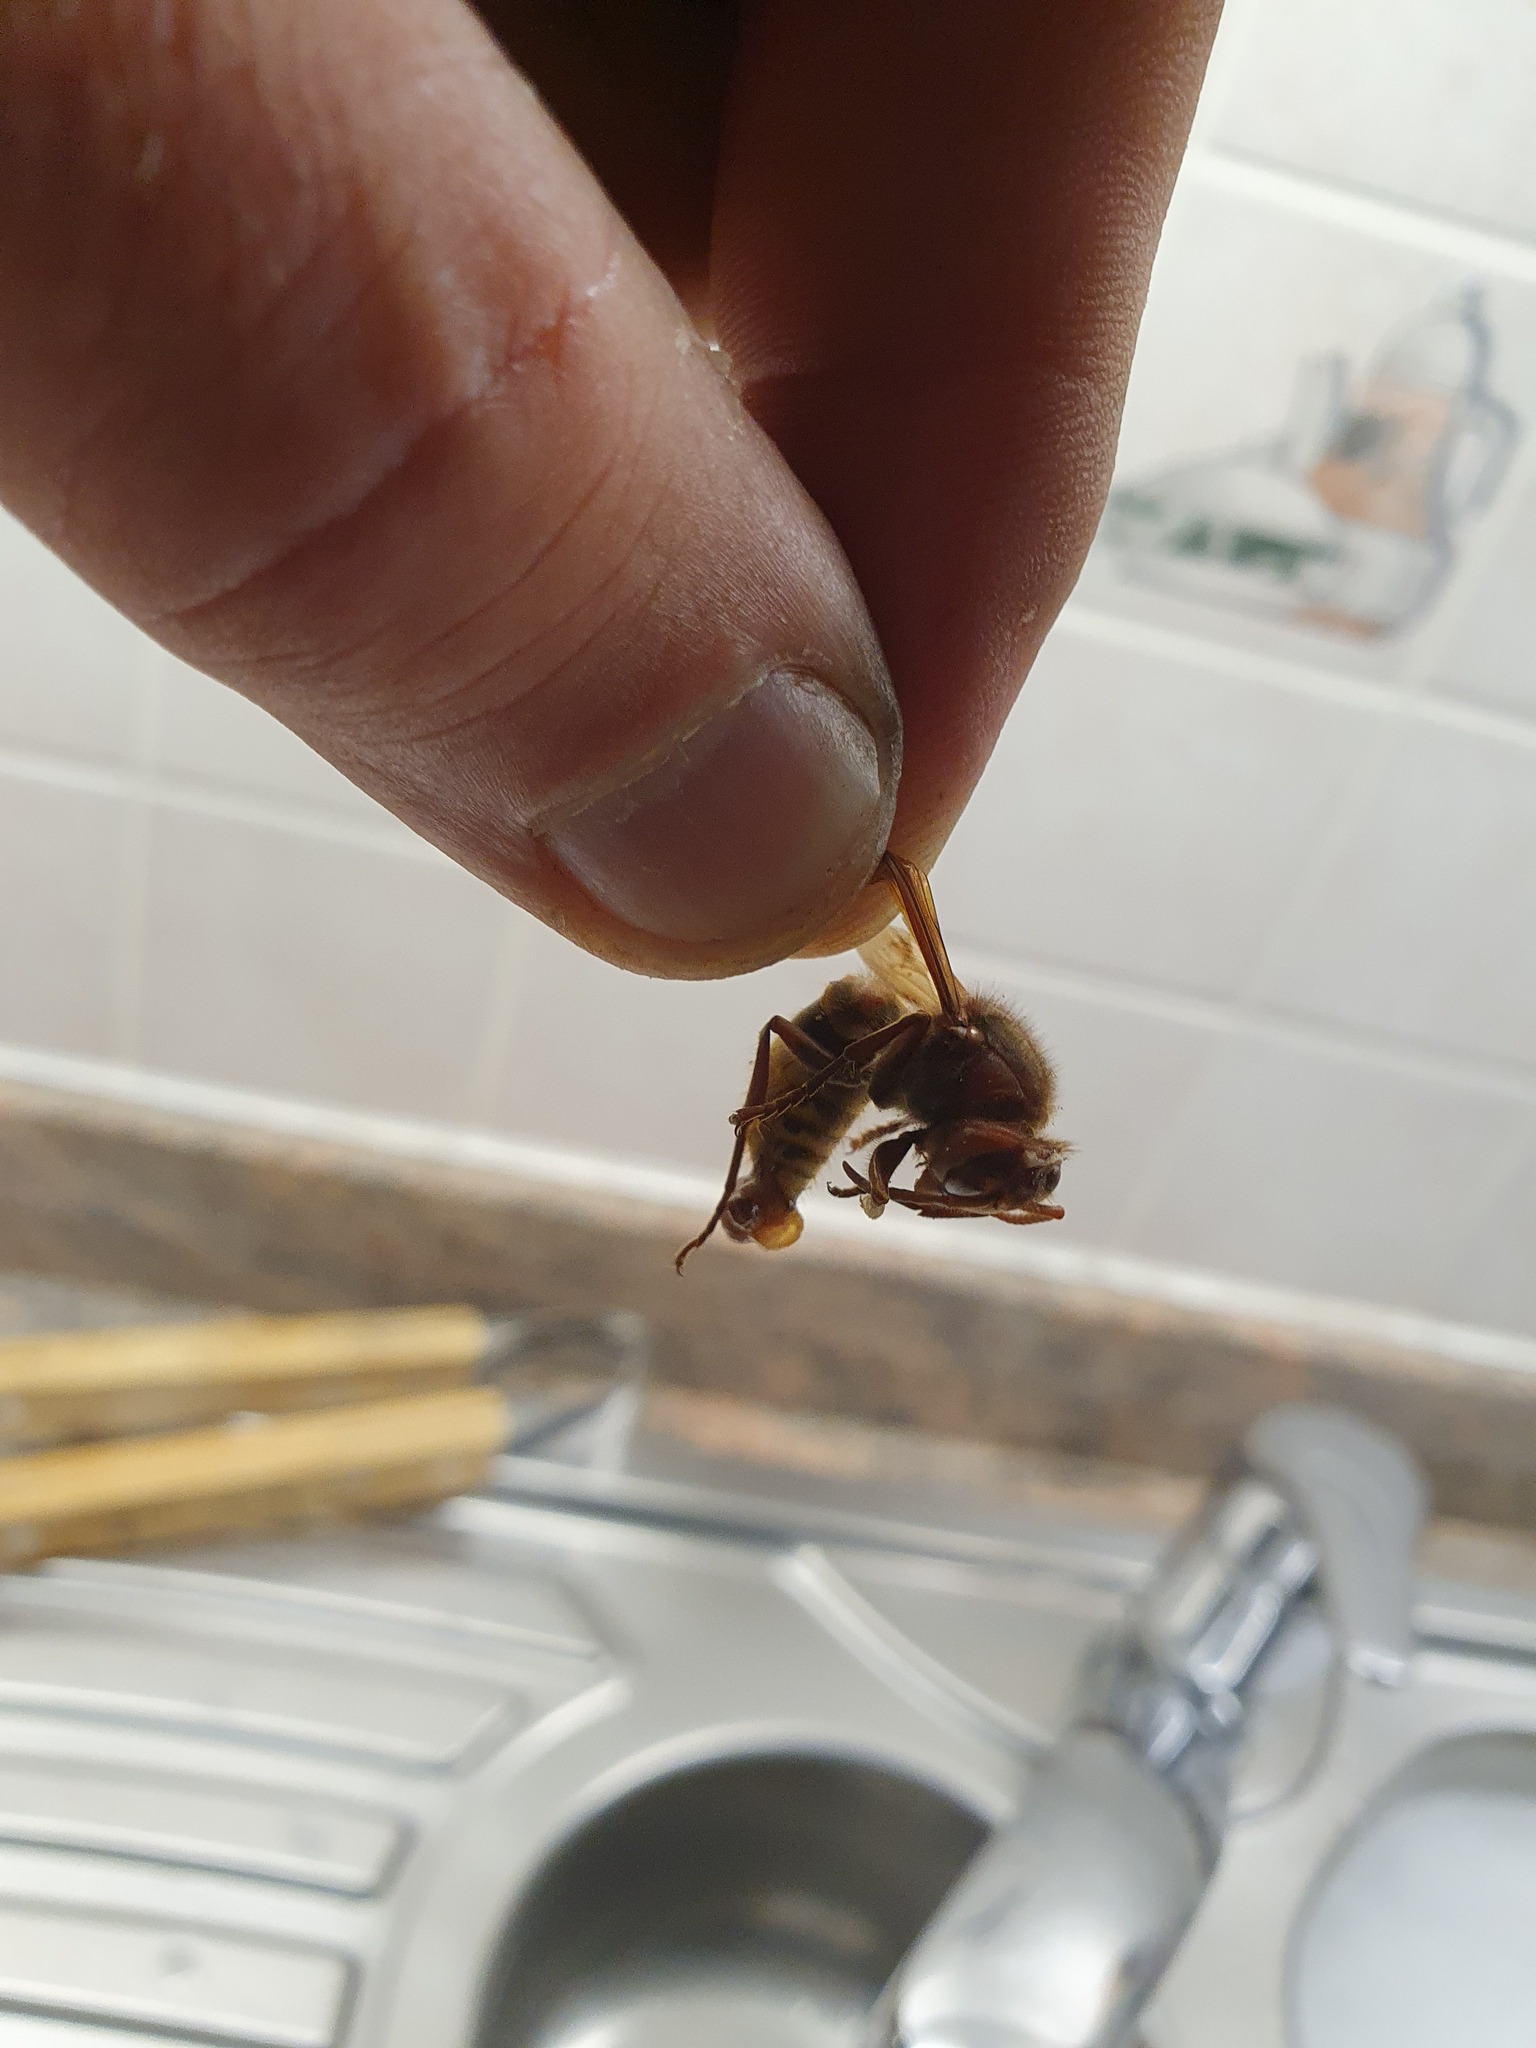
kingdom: Animalia
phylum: Arthropoda
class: Insecta
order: Hymenoptera
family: Vespidae
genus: Vespa
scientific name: Vespa crabro
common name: Hornet
